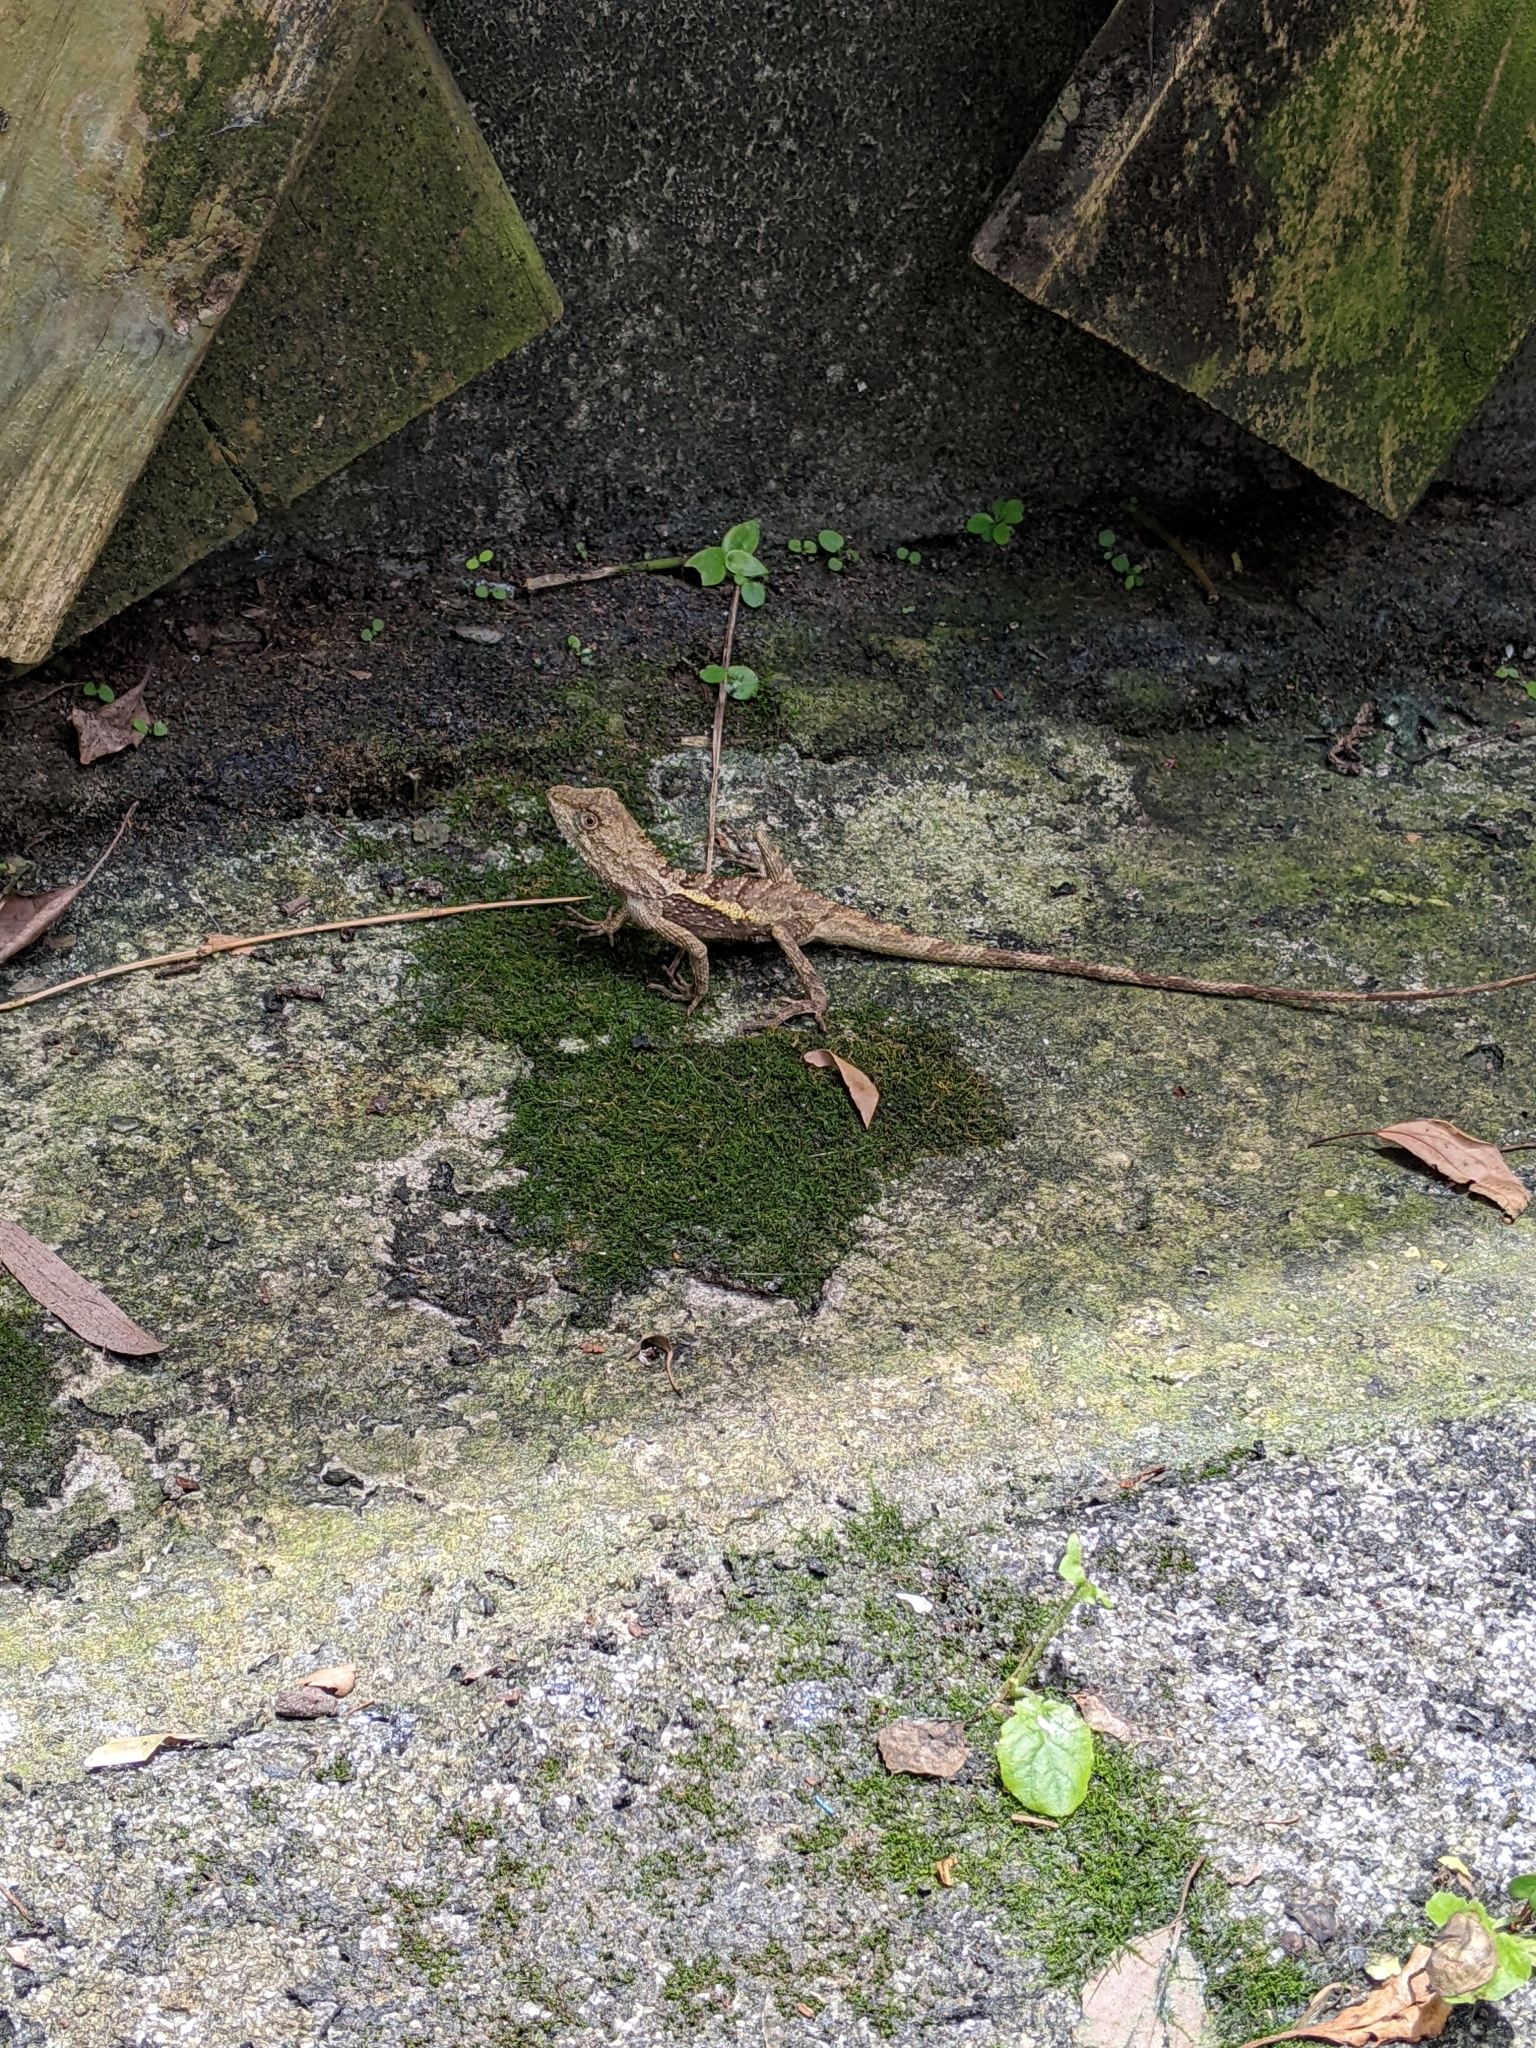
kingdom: Animalia
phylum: Chordata
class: Squamata
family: Agamidae
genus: Diploderma
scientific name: Diploderma swinhonis
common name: Taiwan japalure
